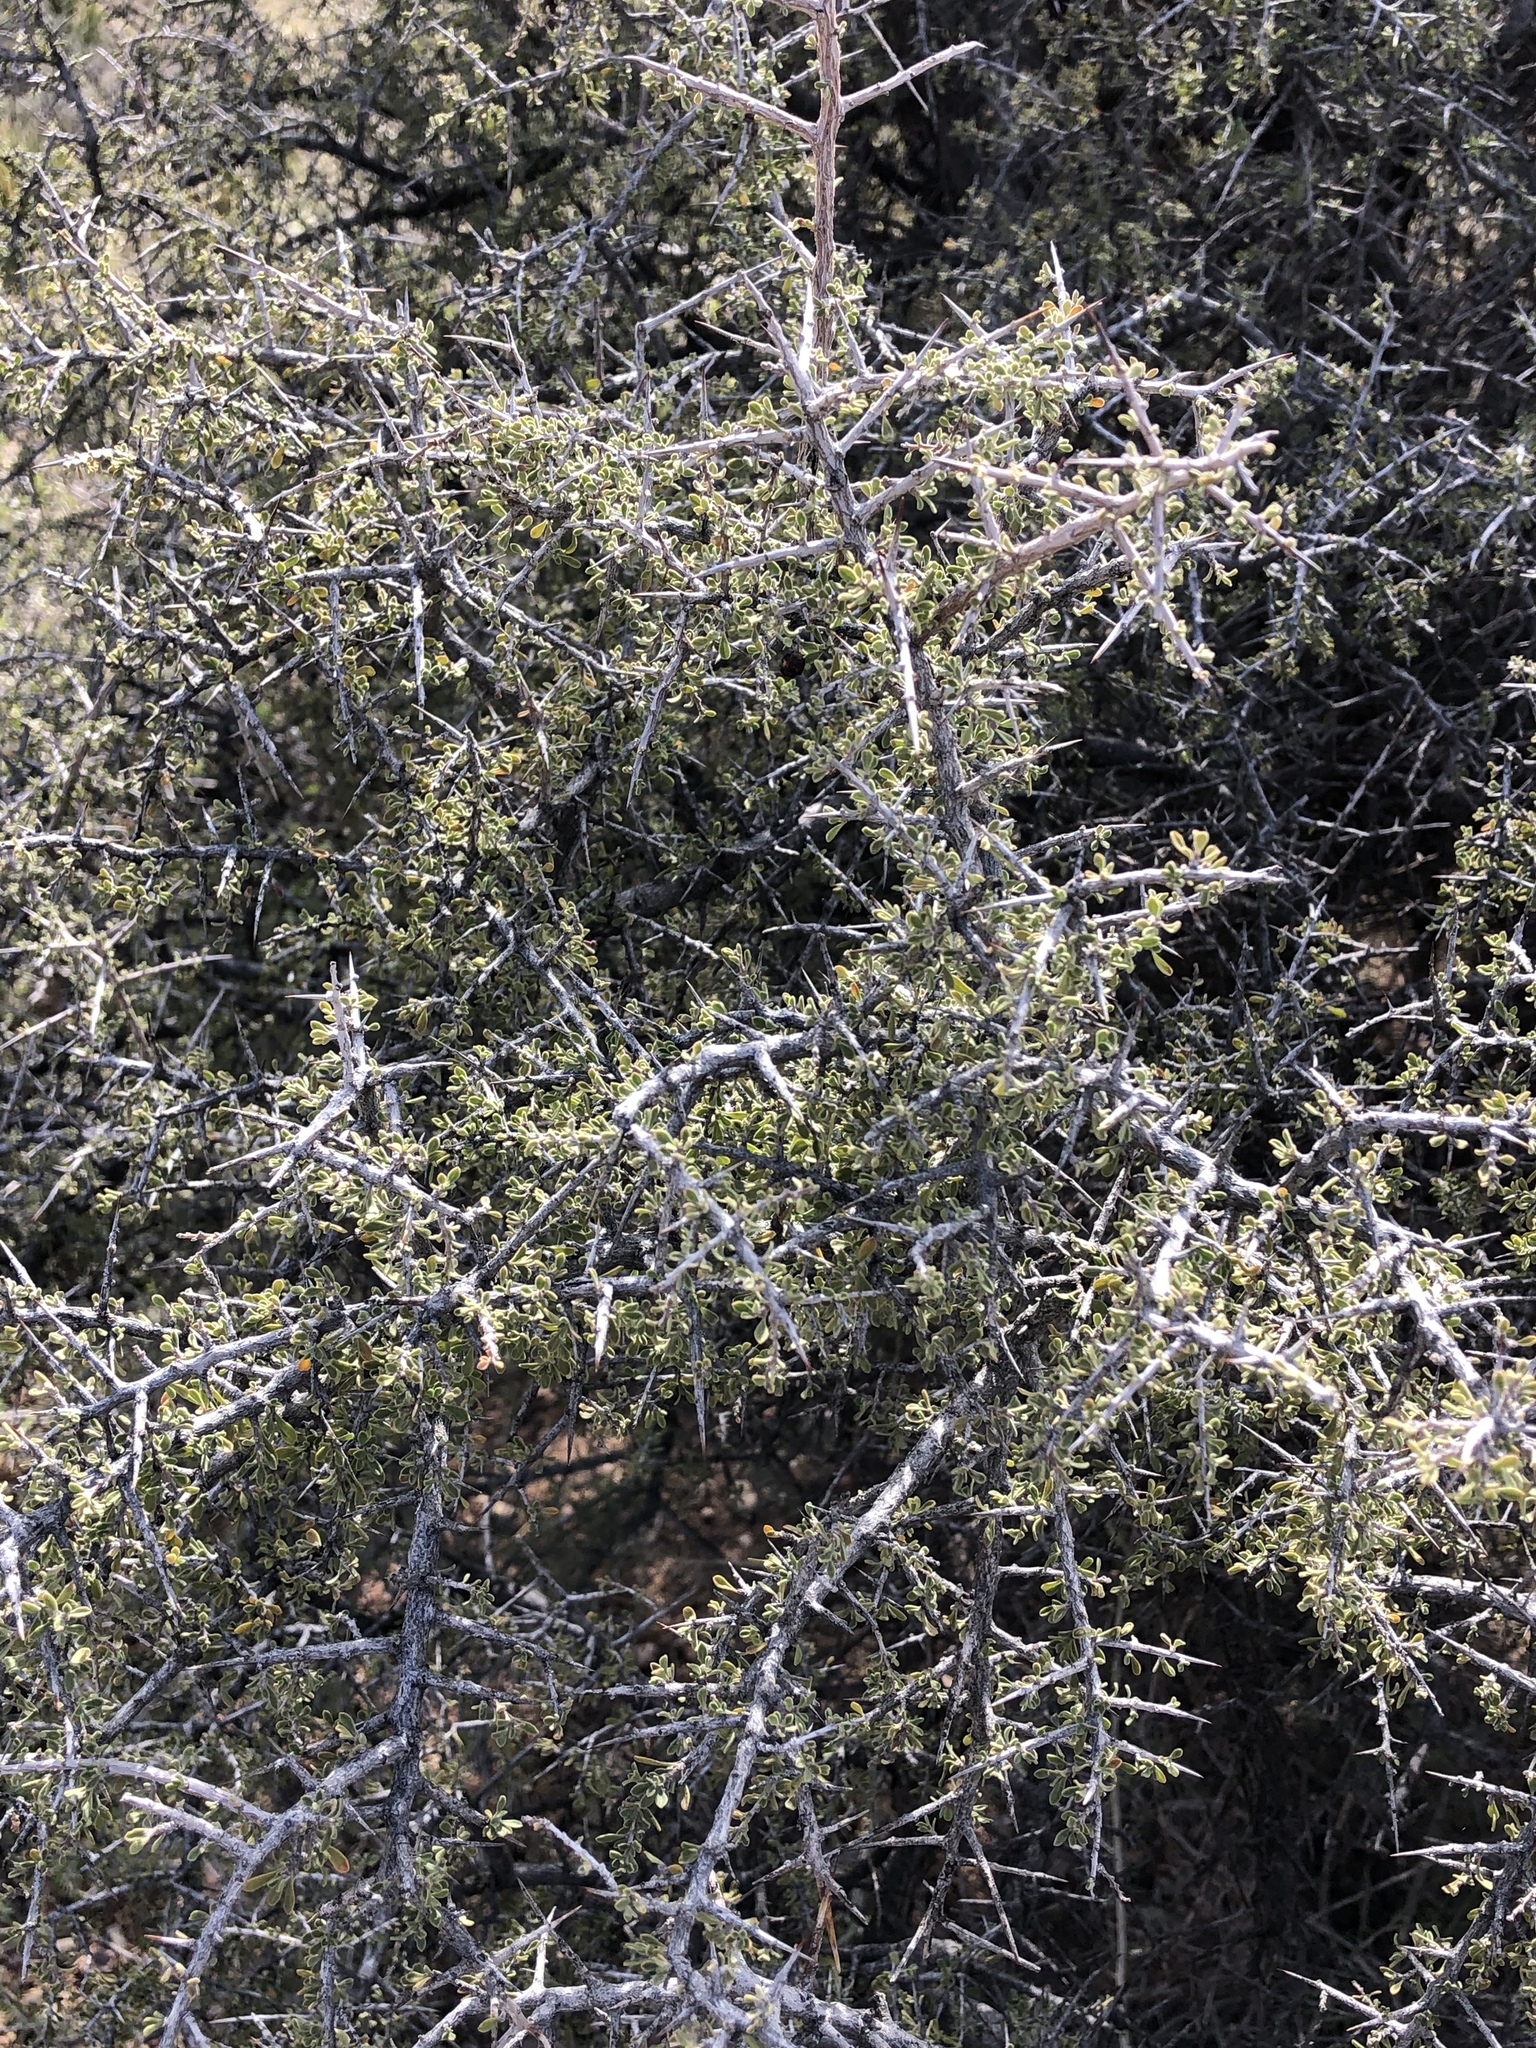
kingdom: Plantae
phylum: Tracheophyta
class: Magnoliopsida
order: Rosales
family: Rhamnaceae
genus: Condalia
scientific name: Condalia warnockii
